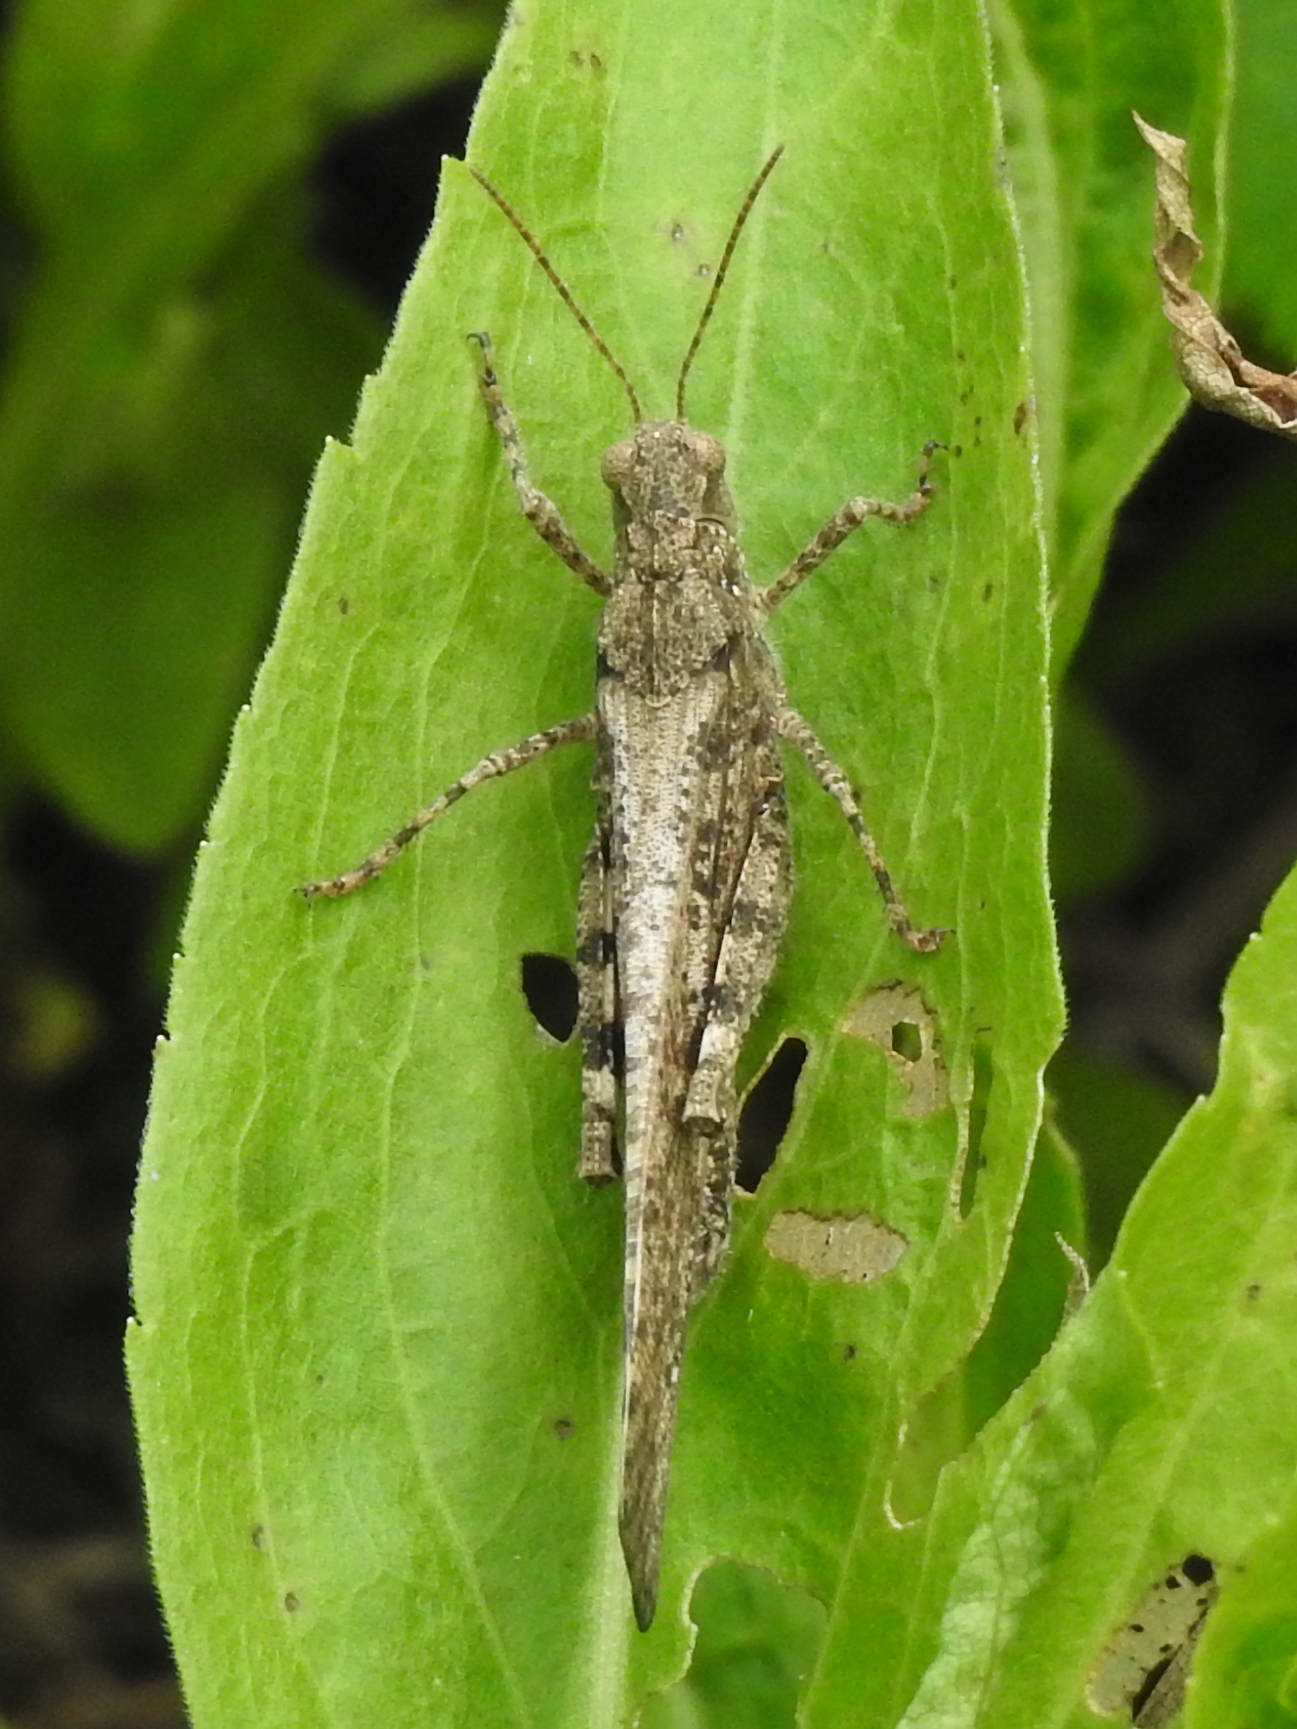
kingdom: Animalia
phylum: Arthropoda
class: Insecta
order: Orthoptera
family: Acrididae
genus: Dissosteira
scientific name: Dissosteira carolina
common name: Carolina grasshopper
